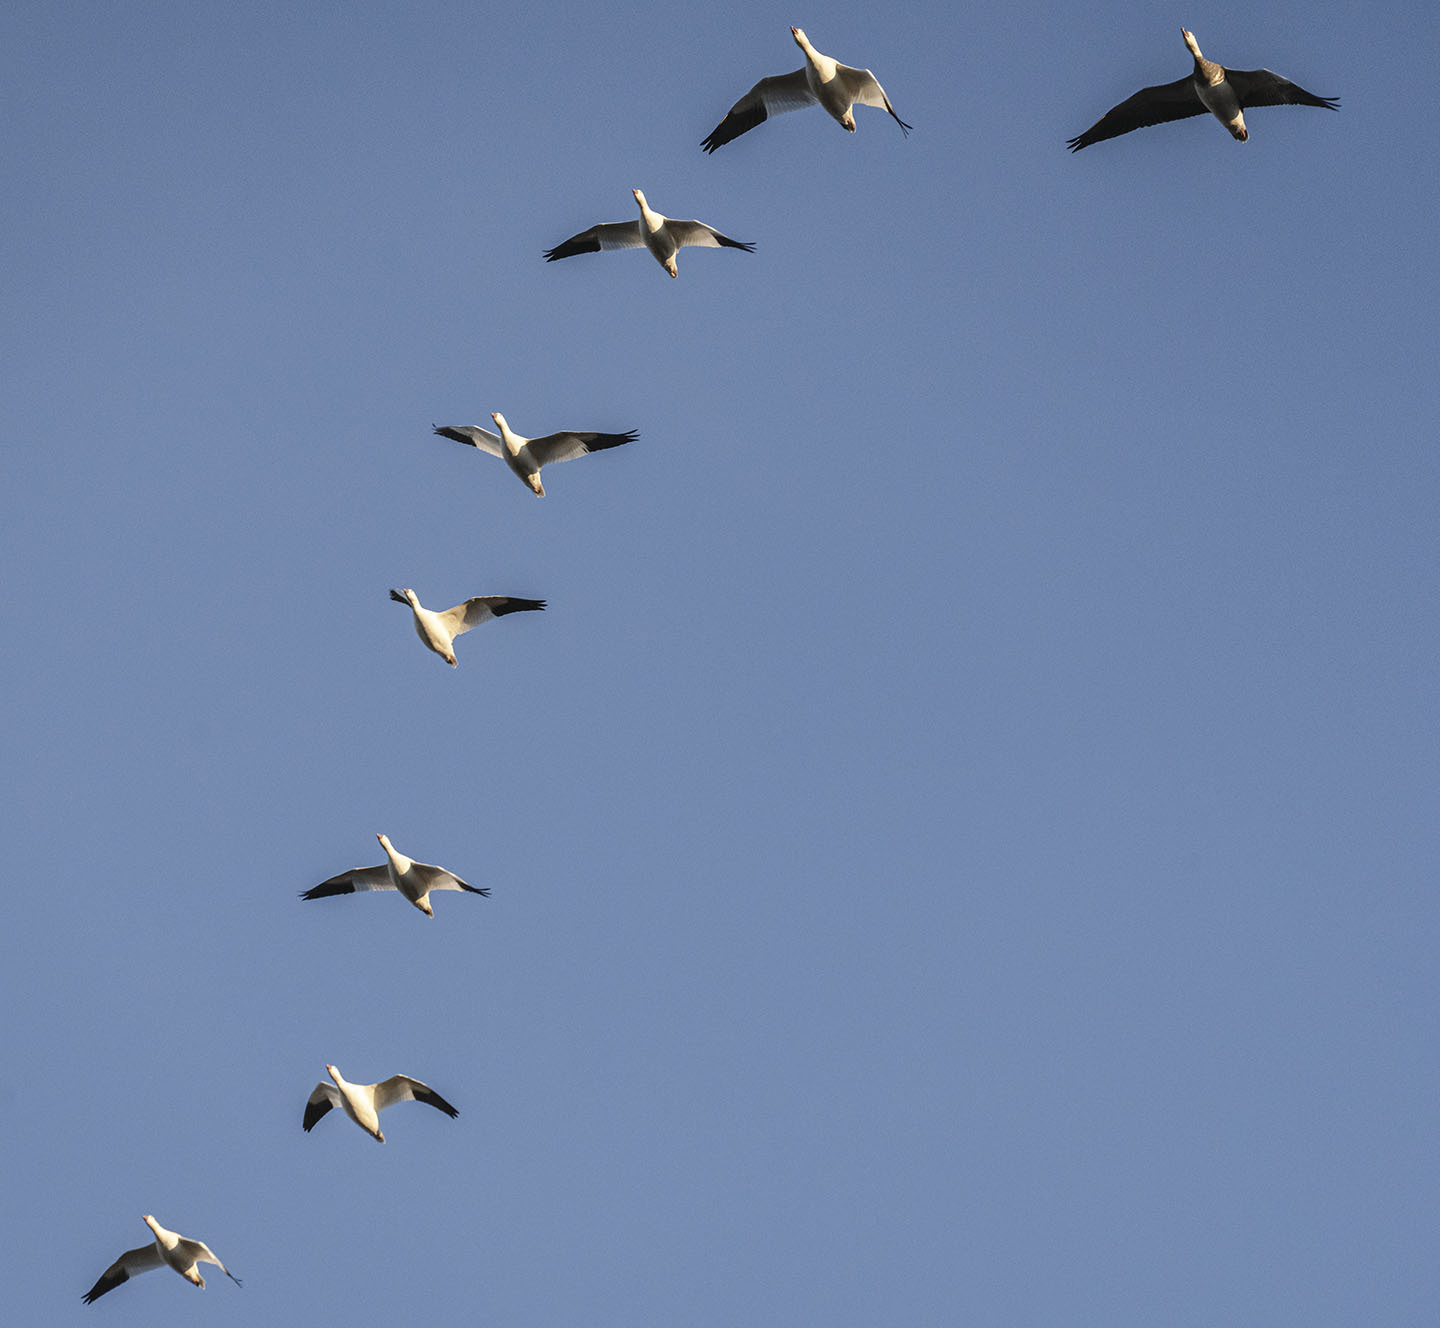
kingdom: Animalia
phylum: Chordata
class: Aves
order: Anseriformes
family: Anatidae
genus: Anser
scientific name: Anser caerulescens
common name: Snow goose
